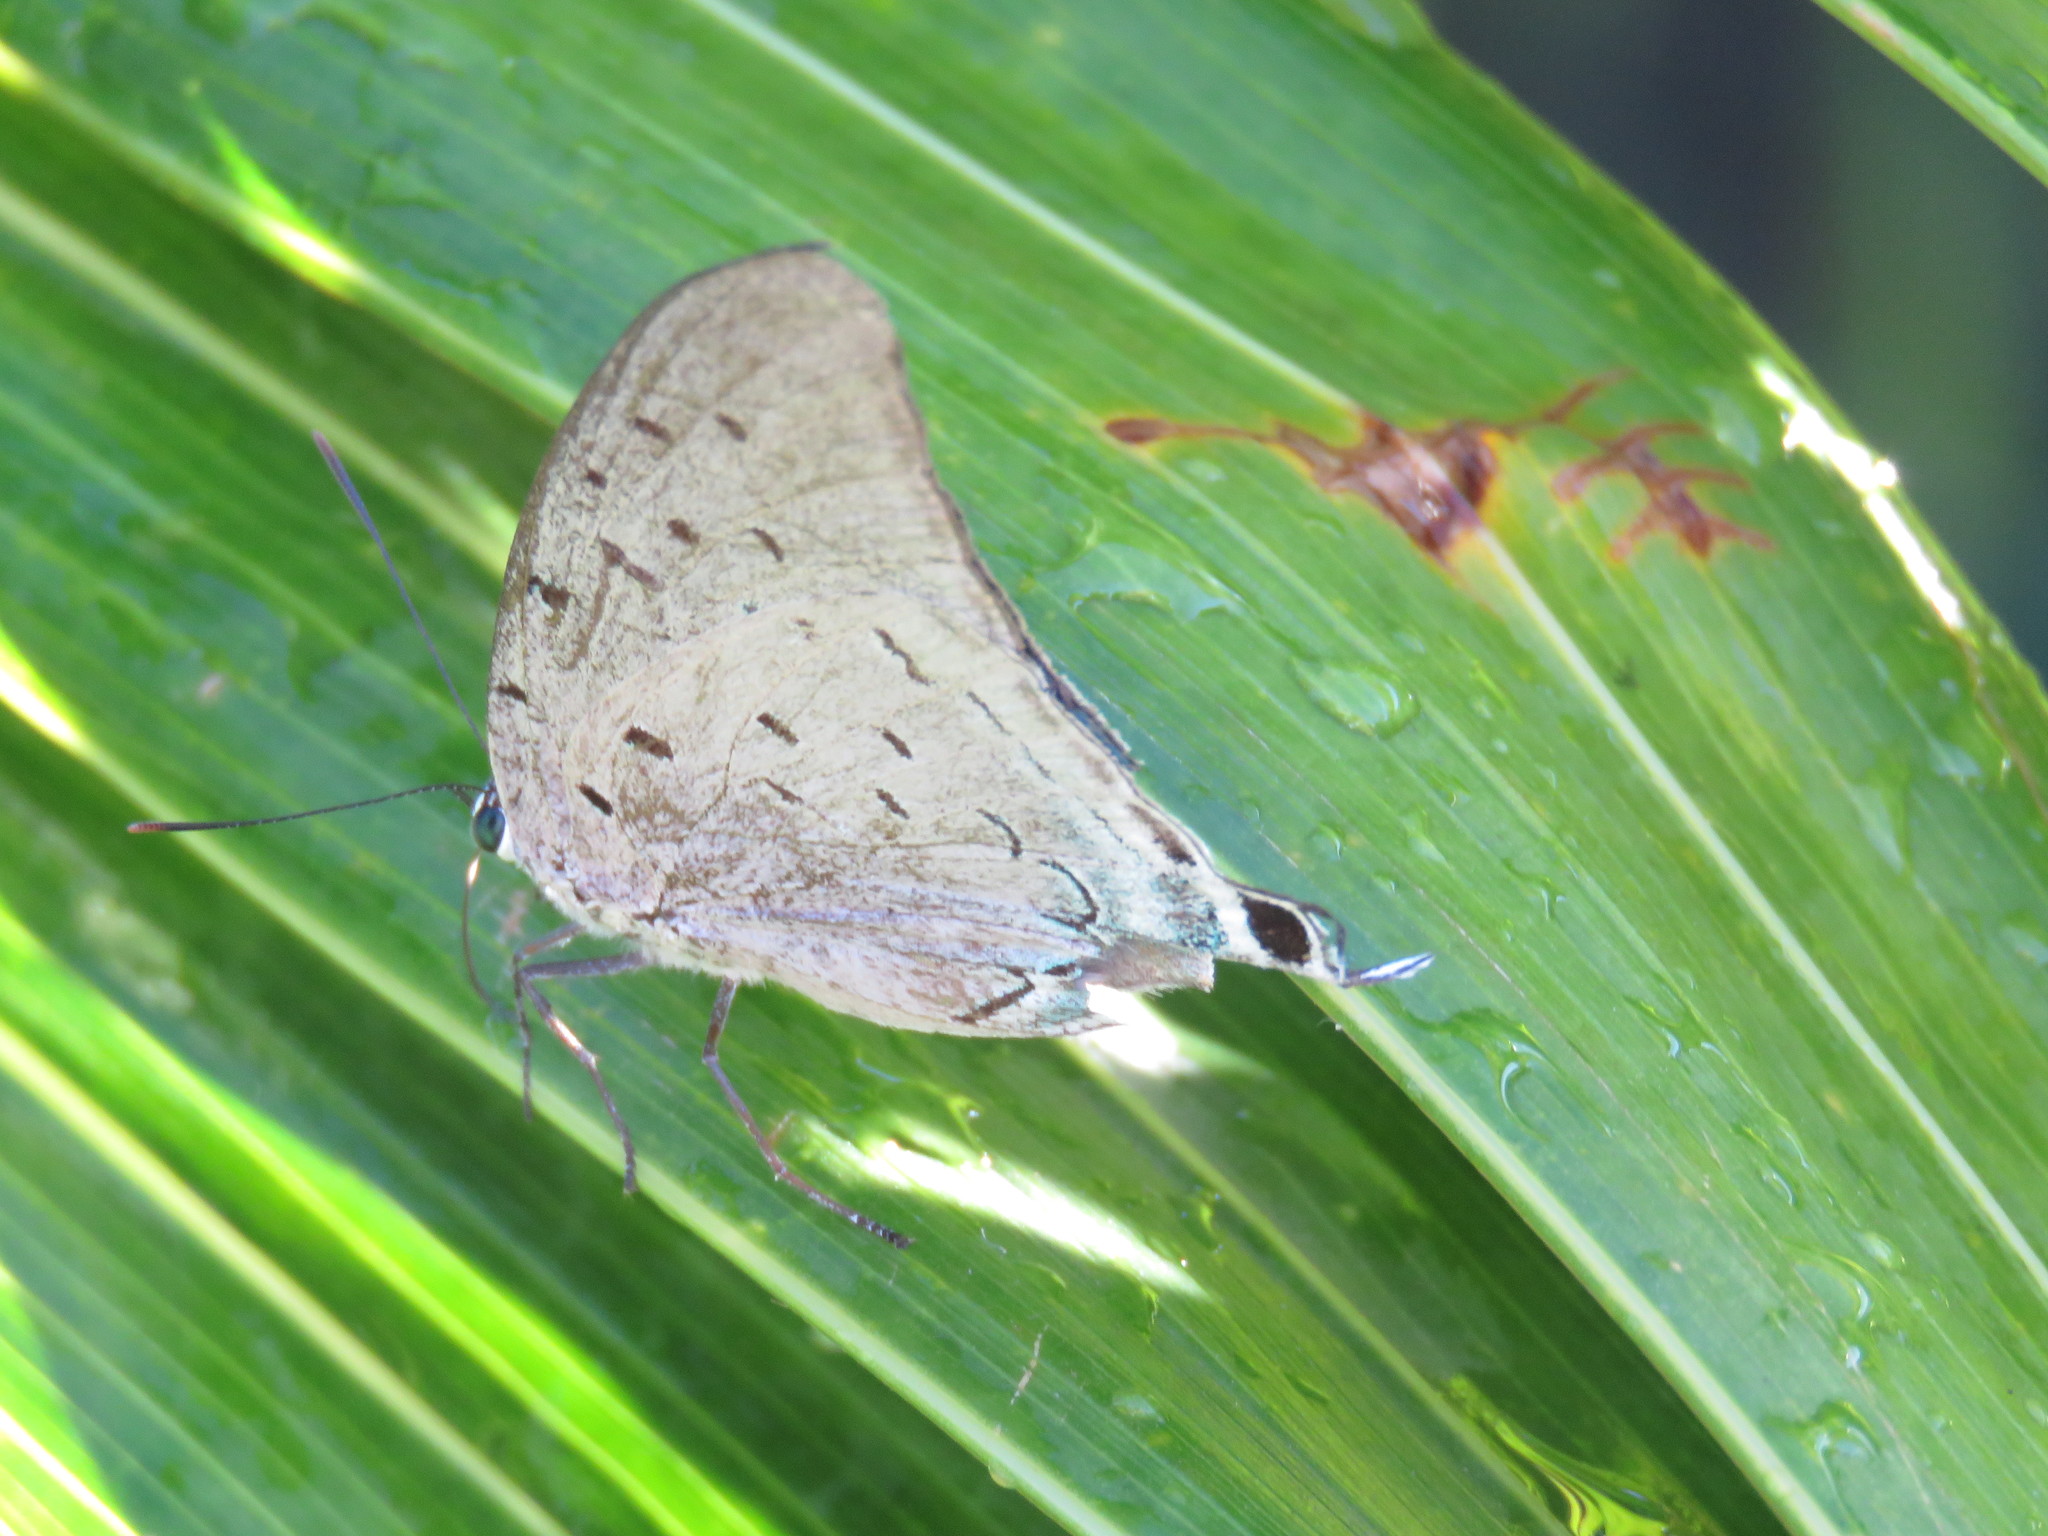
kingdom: Animalia
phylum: Arthropoda
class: Insecta
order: Lepidoptera
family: Lycaenidae
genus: Pseudolycaena
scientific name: Pseudolycaena marsyas
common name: Marsyas hairstreak
